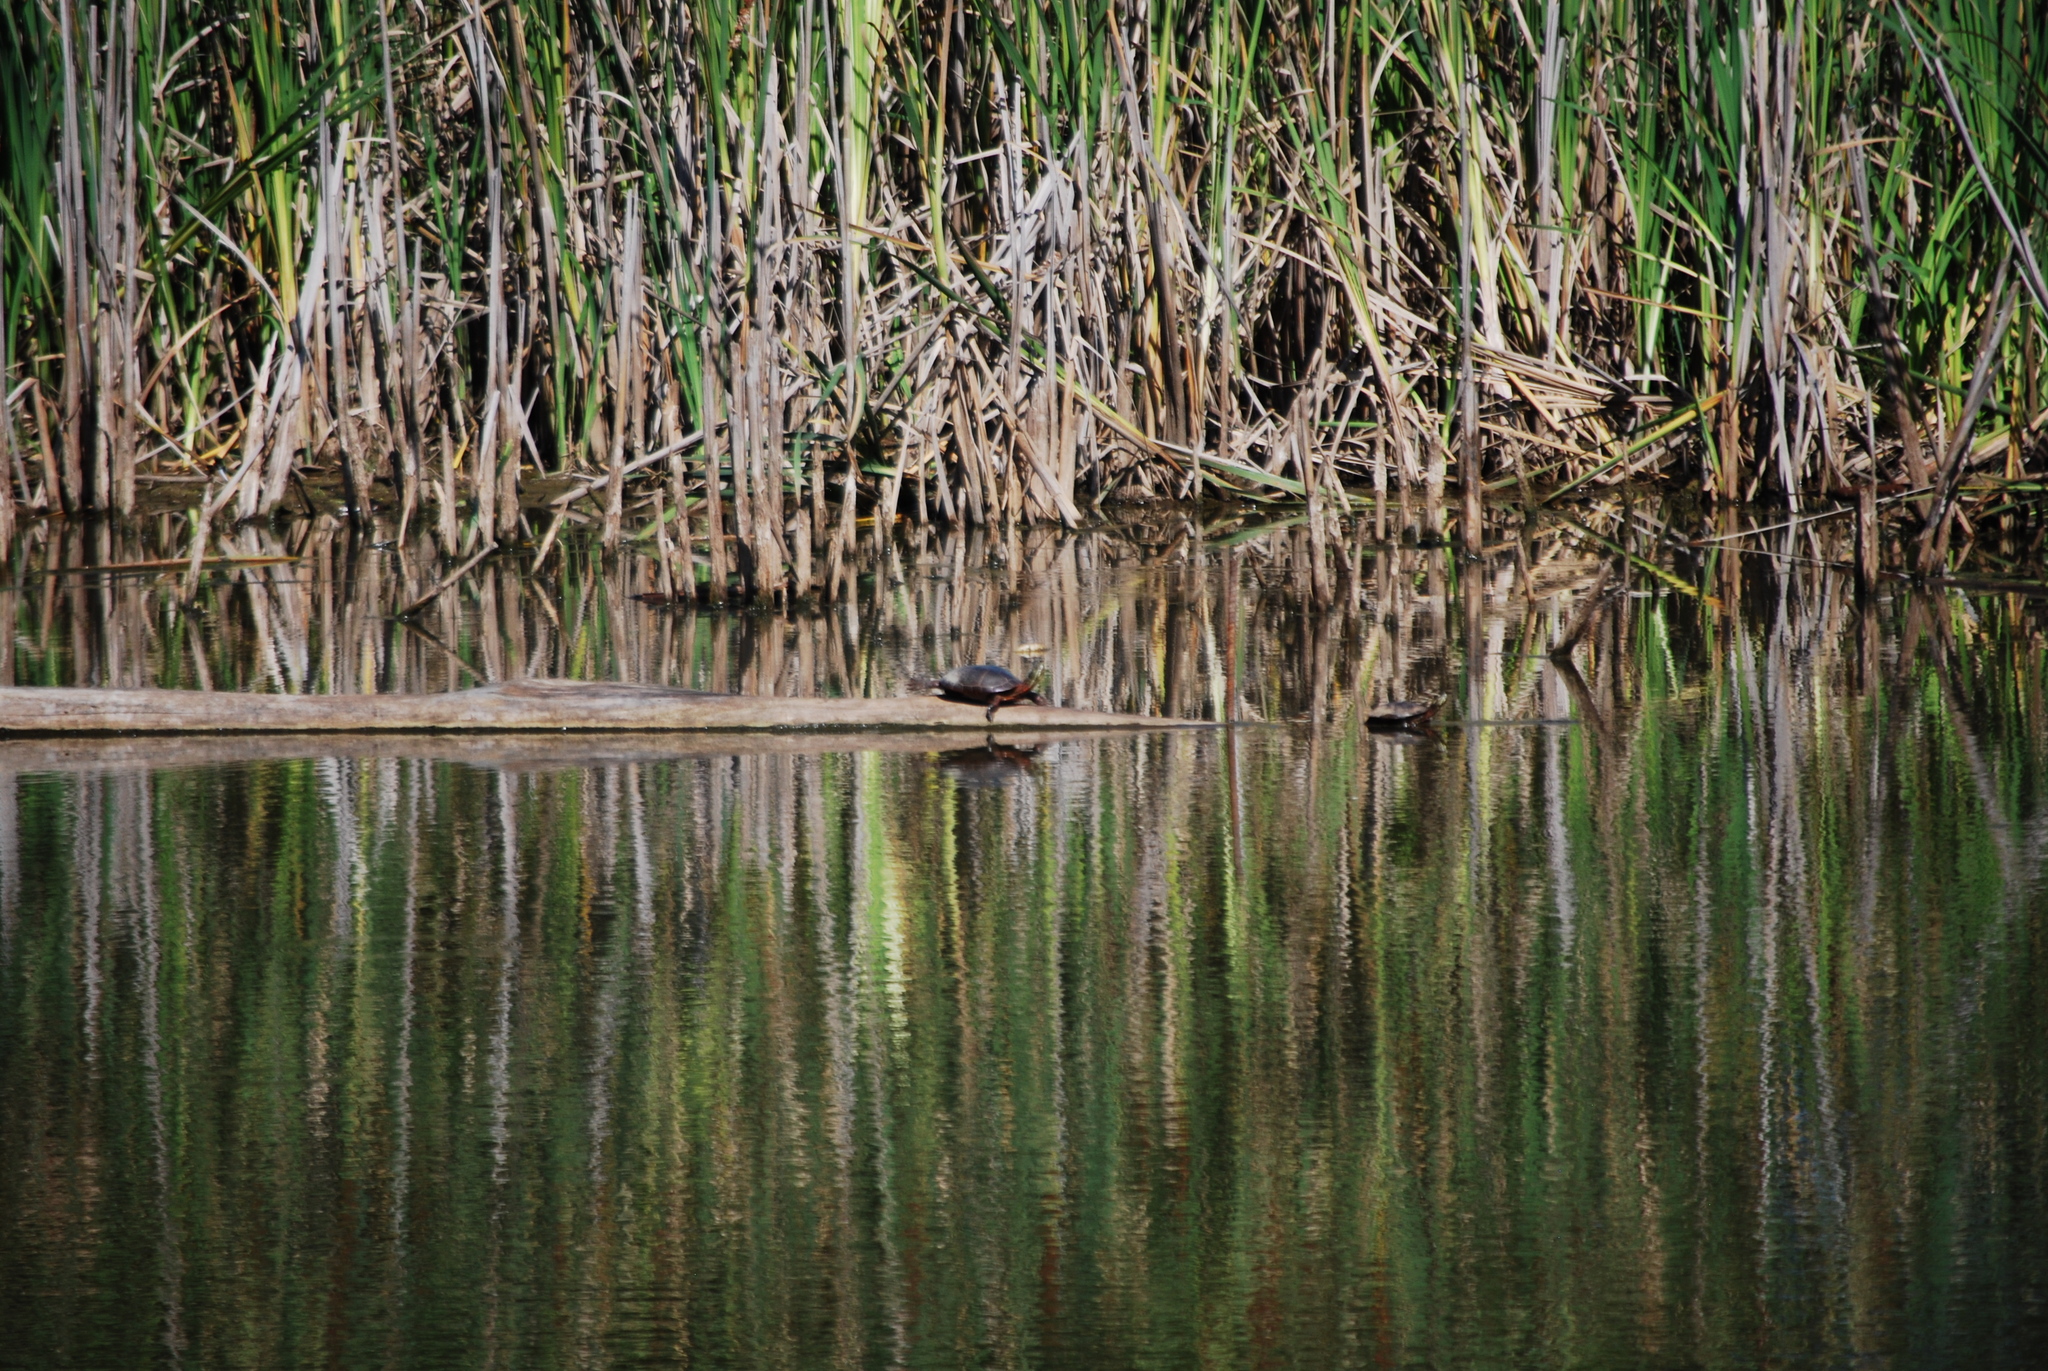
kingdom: Animalia
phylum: Chordata
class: Testudines
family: Emydidae
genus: Chrysemys
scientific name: Chrysemys picta
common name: Painted turtle
